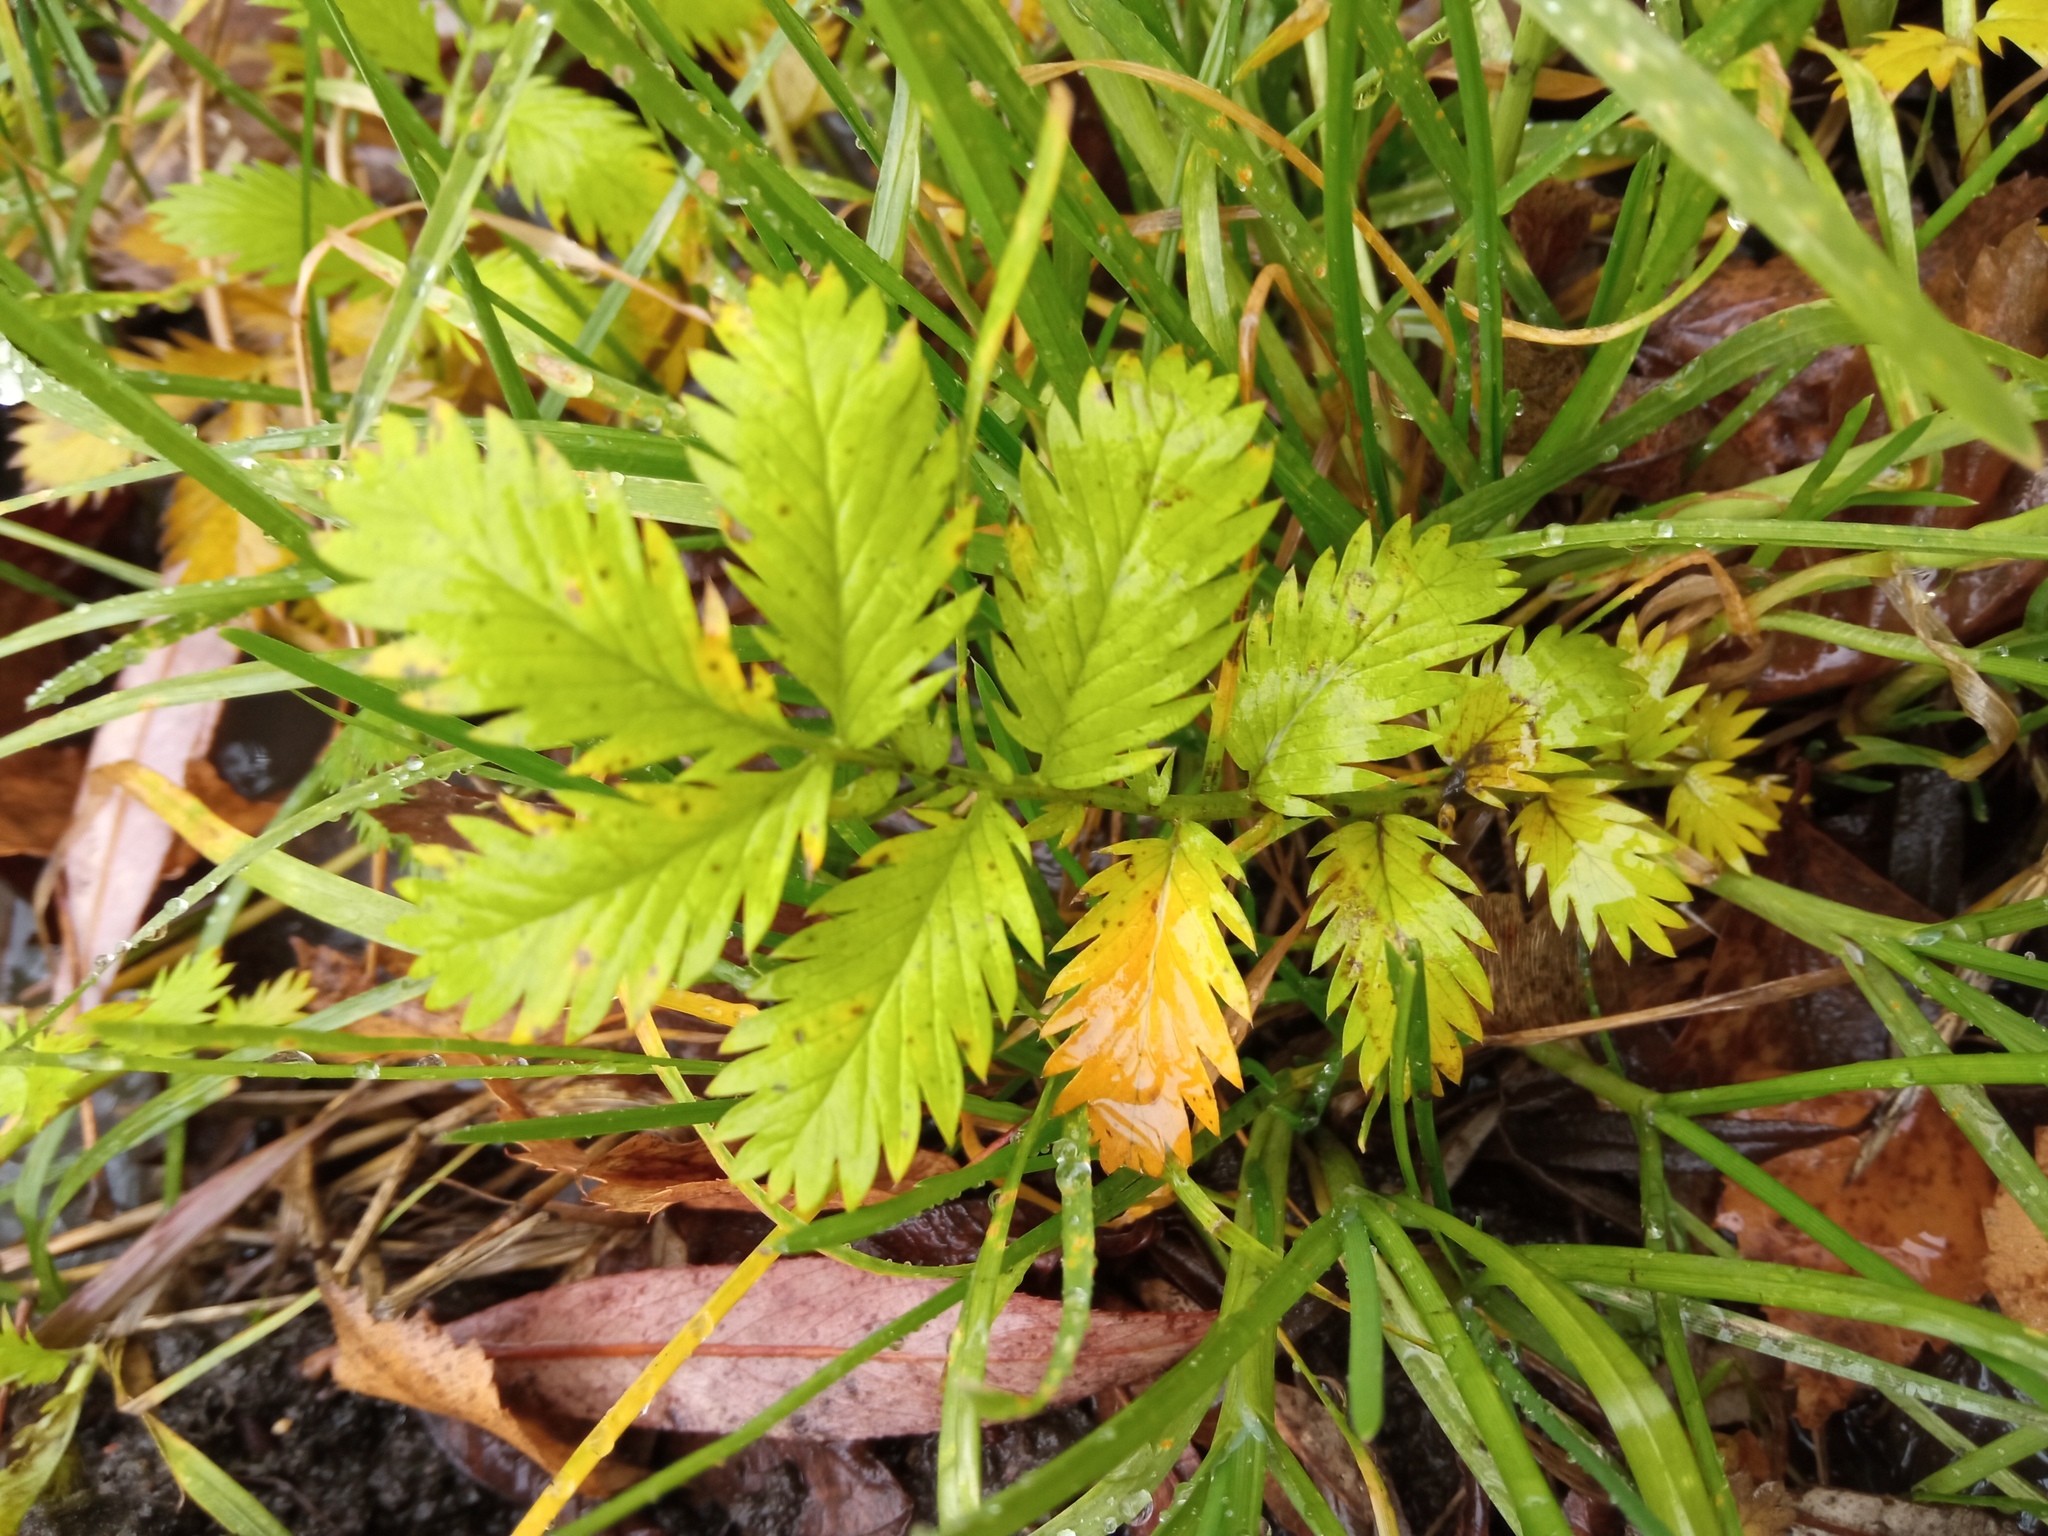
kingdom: Plantae
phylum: Tracheophyta
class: Magnoliopsida
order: Rosales
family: Rosaceae
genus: Argentina
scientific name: Argentina anserina
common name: Common silverweed
